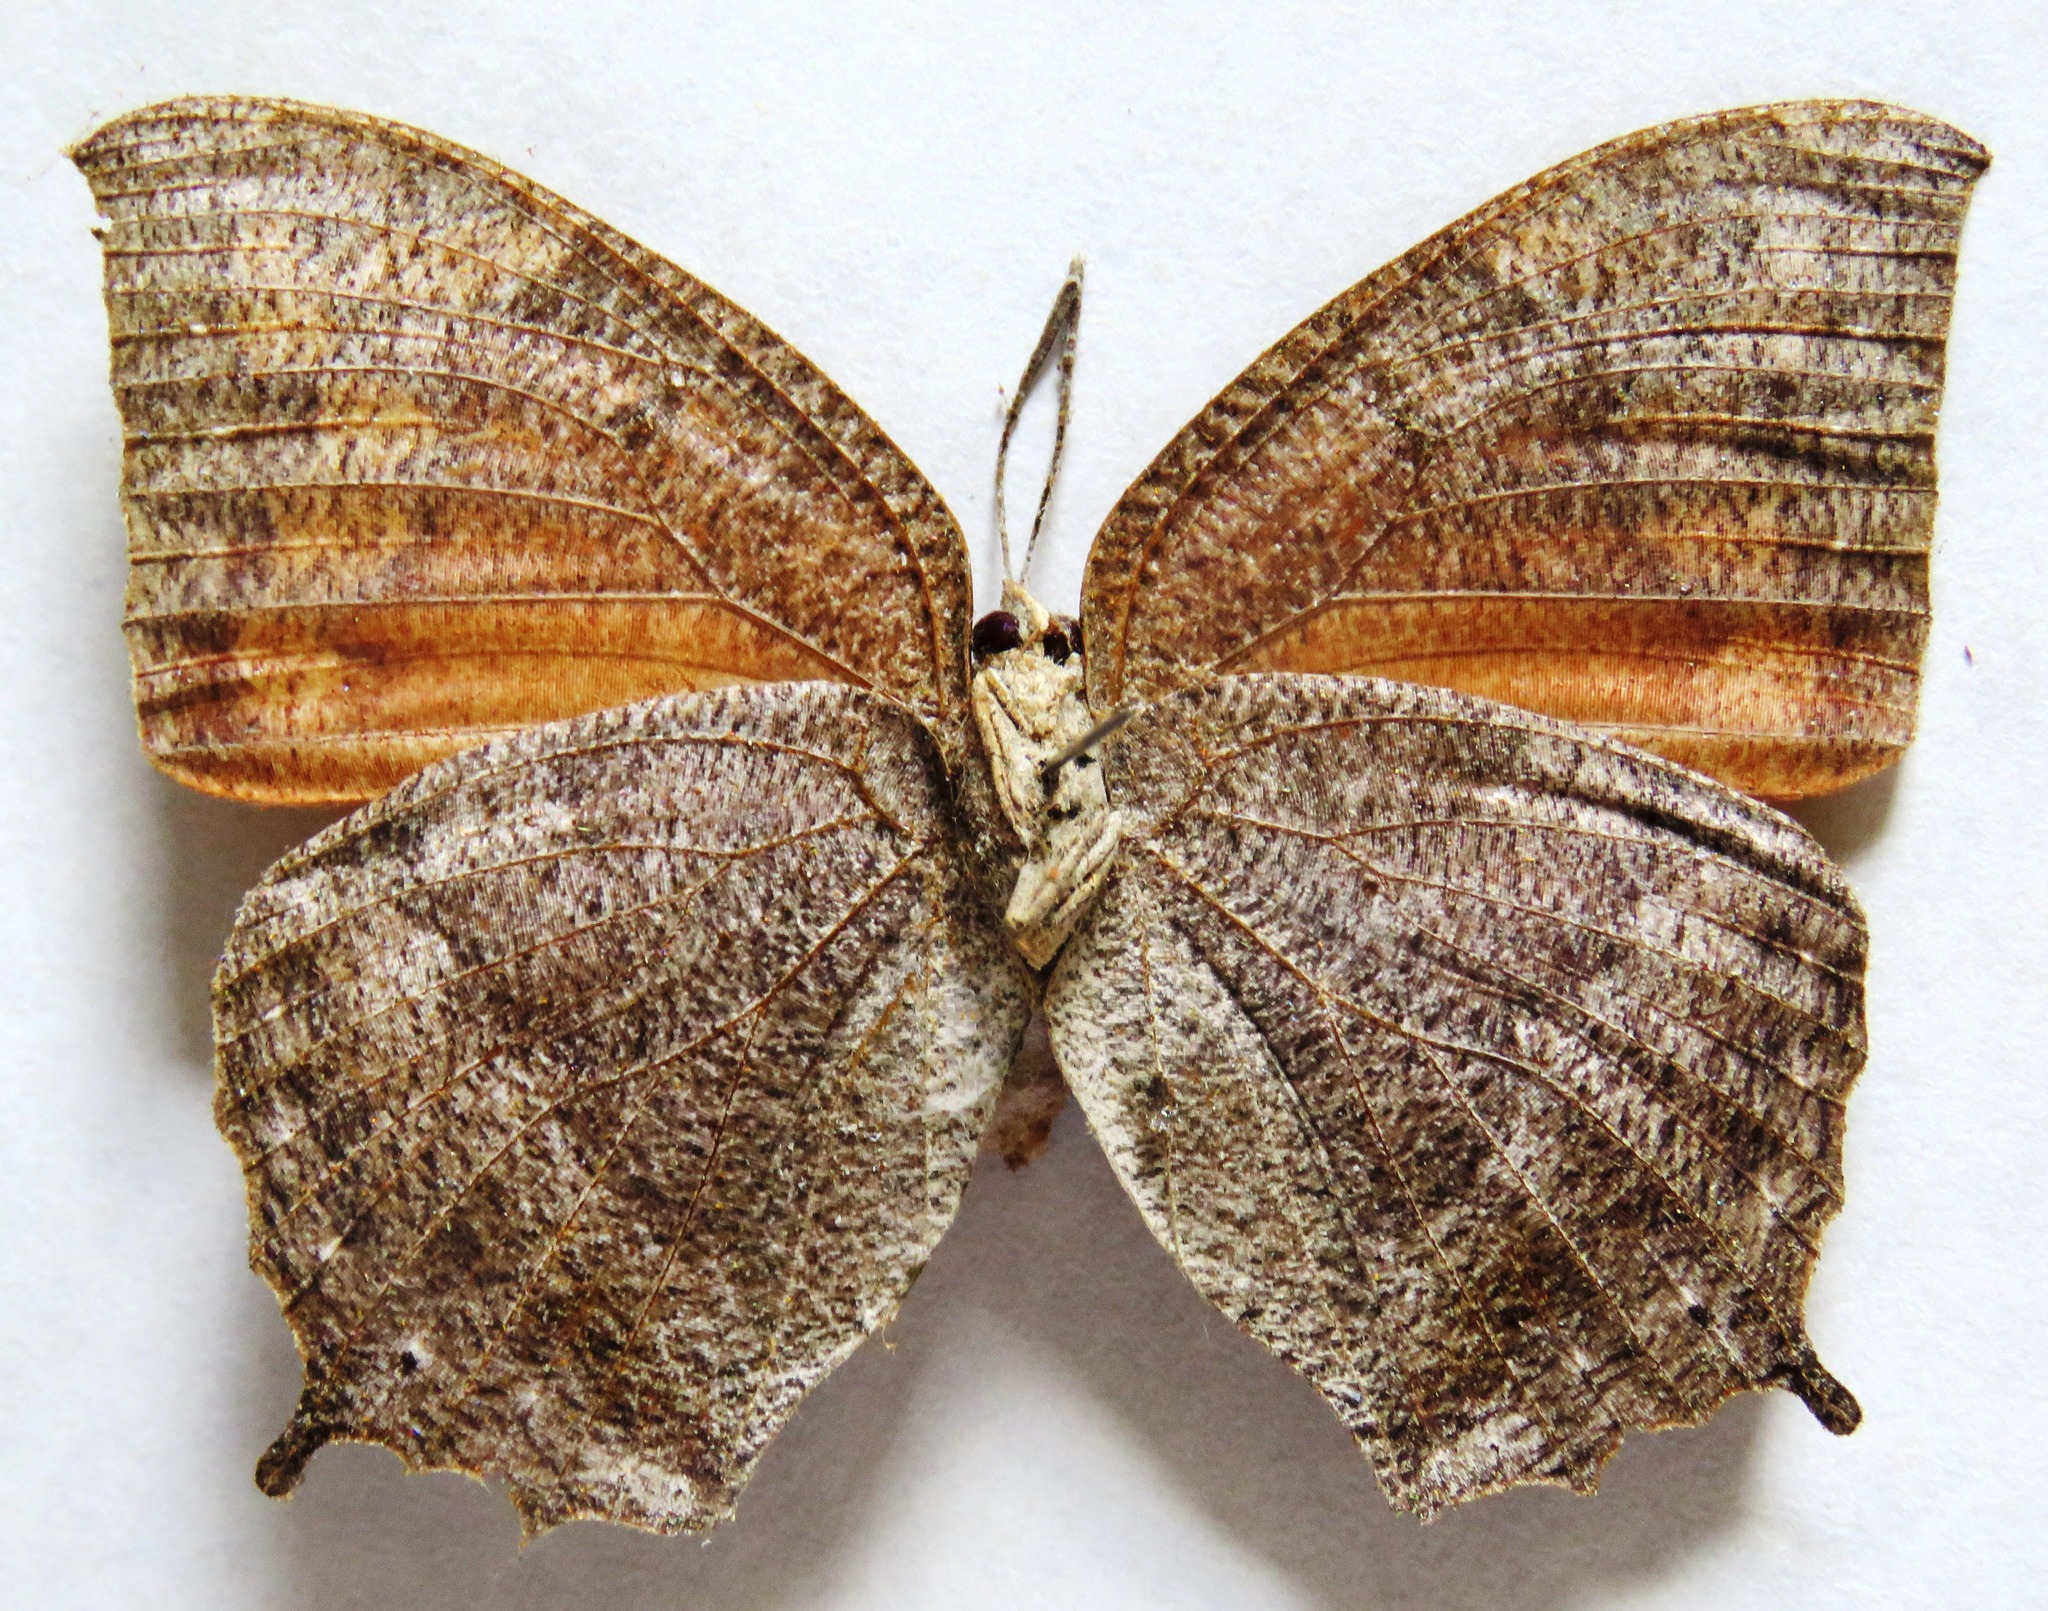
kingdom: Animalia
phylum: Arthropoda
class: Insecta
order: Lepidoptera
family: Nymphalidae
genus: Anaea
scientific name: Anaea aidea
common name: Tropical leafwing
